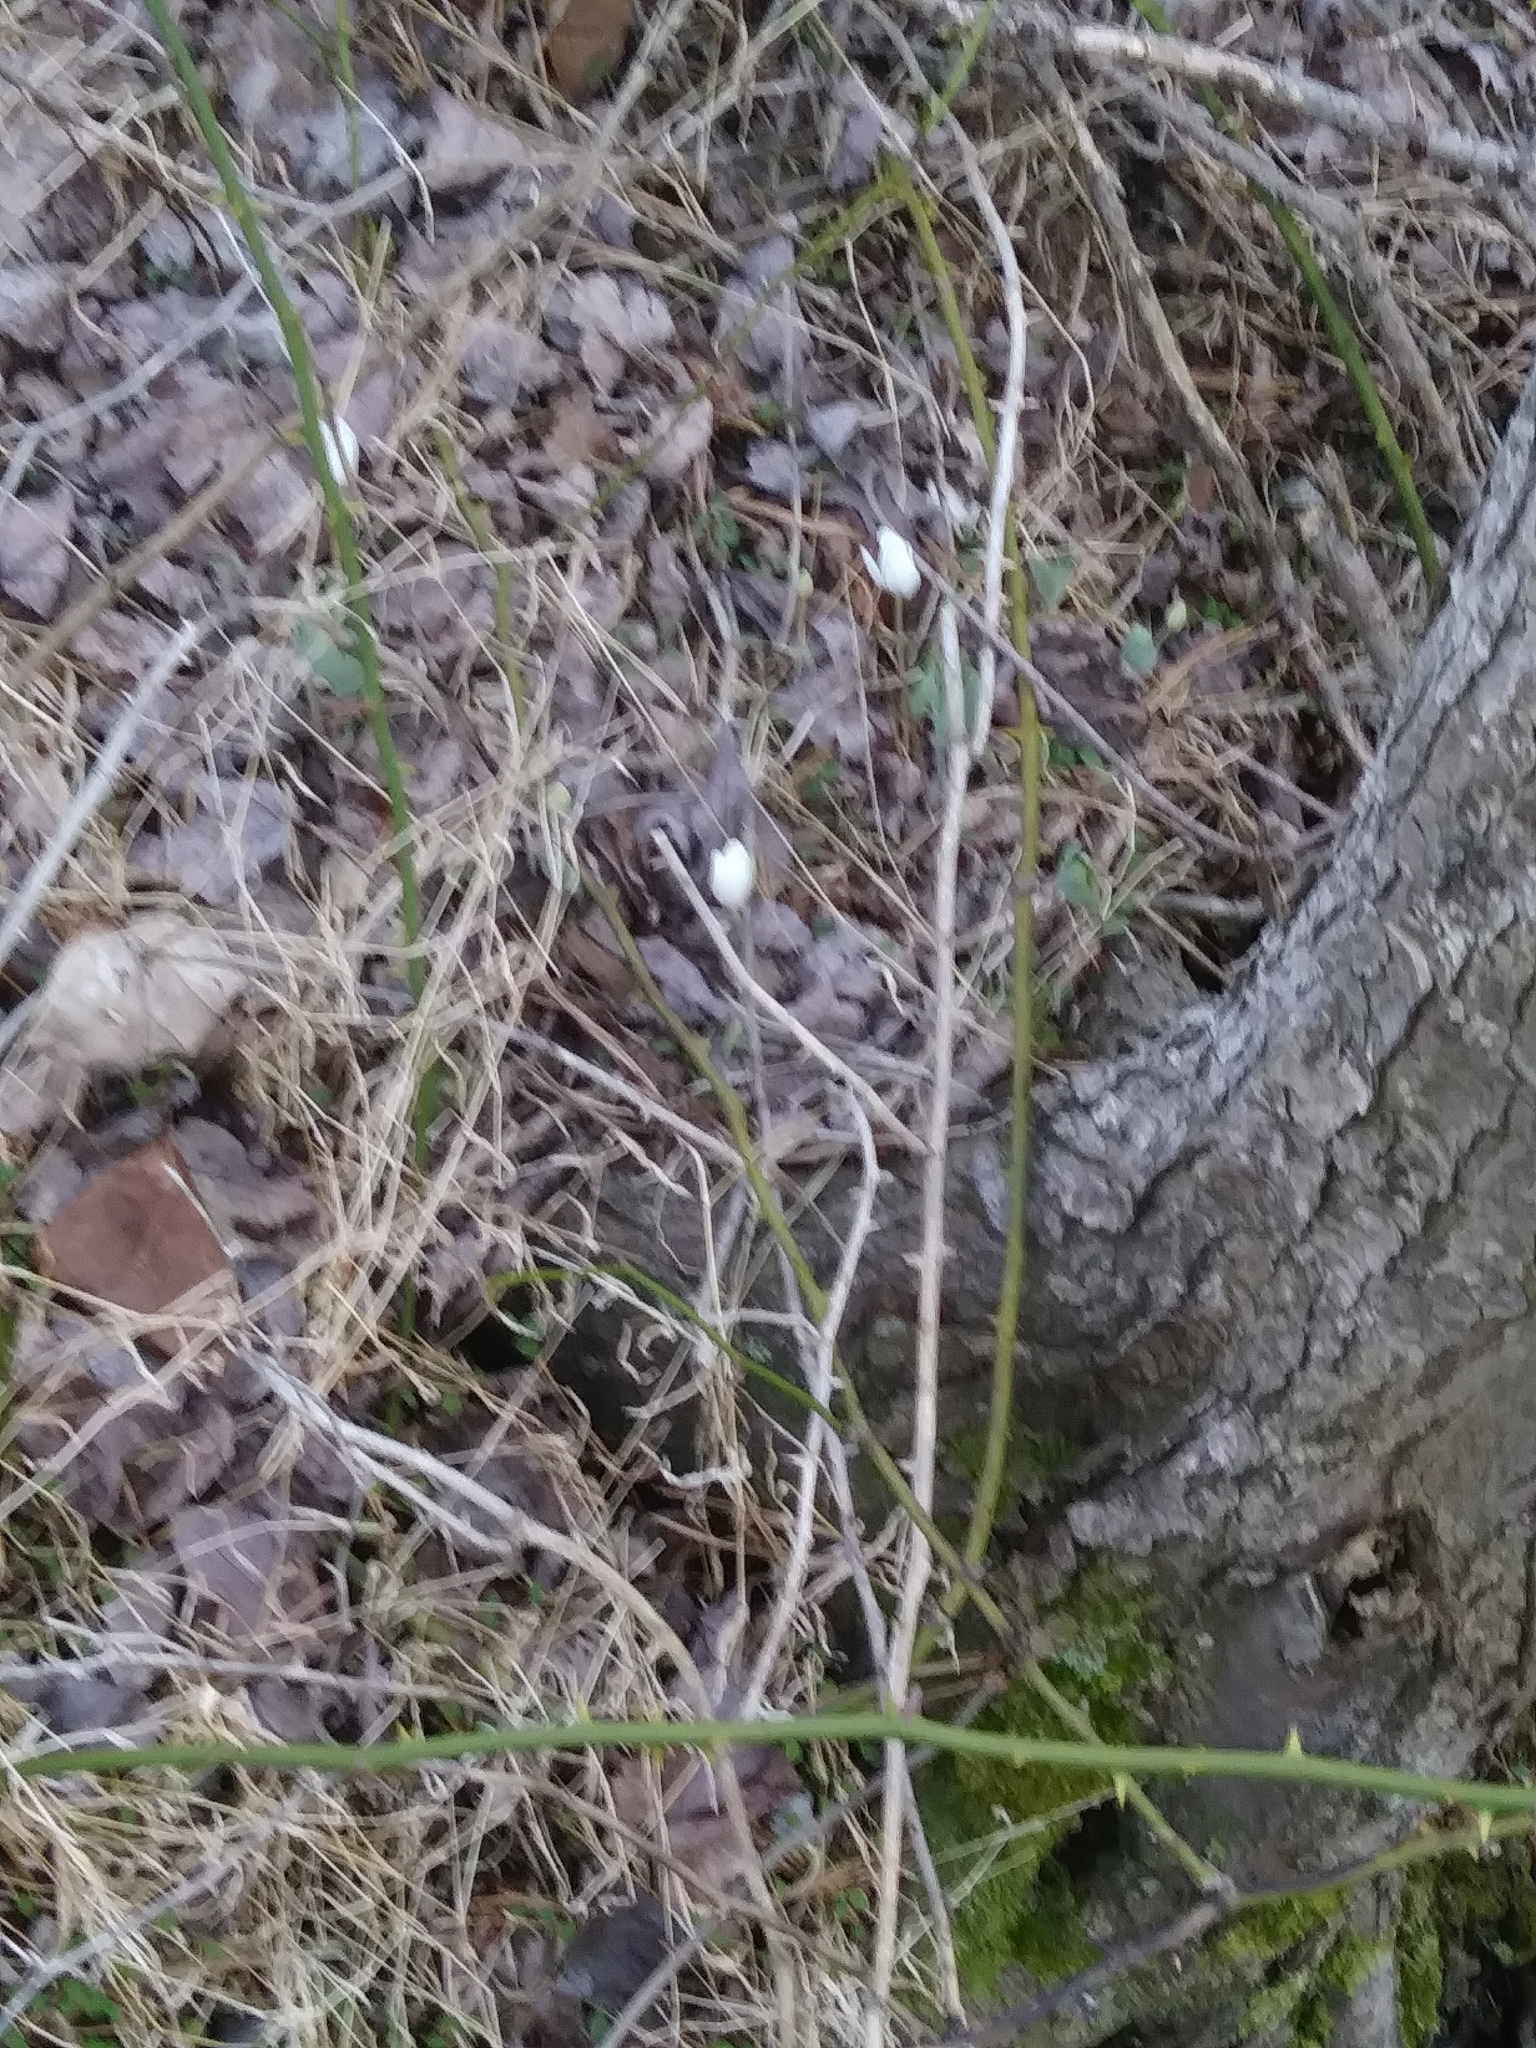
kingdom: Plantae
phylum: Tracheophyta
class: Magnoliopsida
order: Ranunculales
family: Papaveraceae
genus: Sanguinaria
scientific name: Sanguinaria canadensis
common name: Bloodroot
